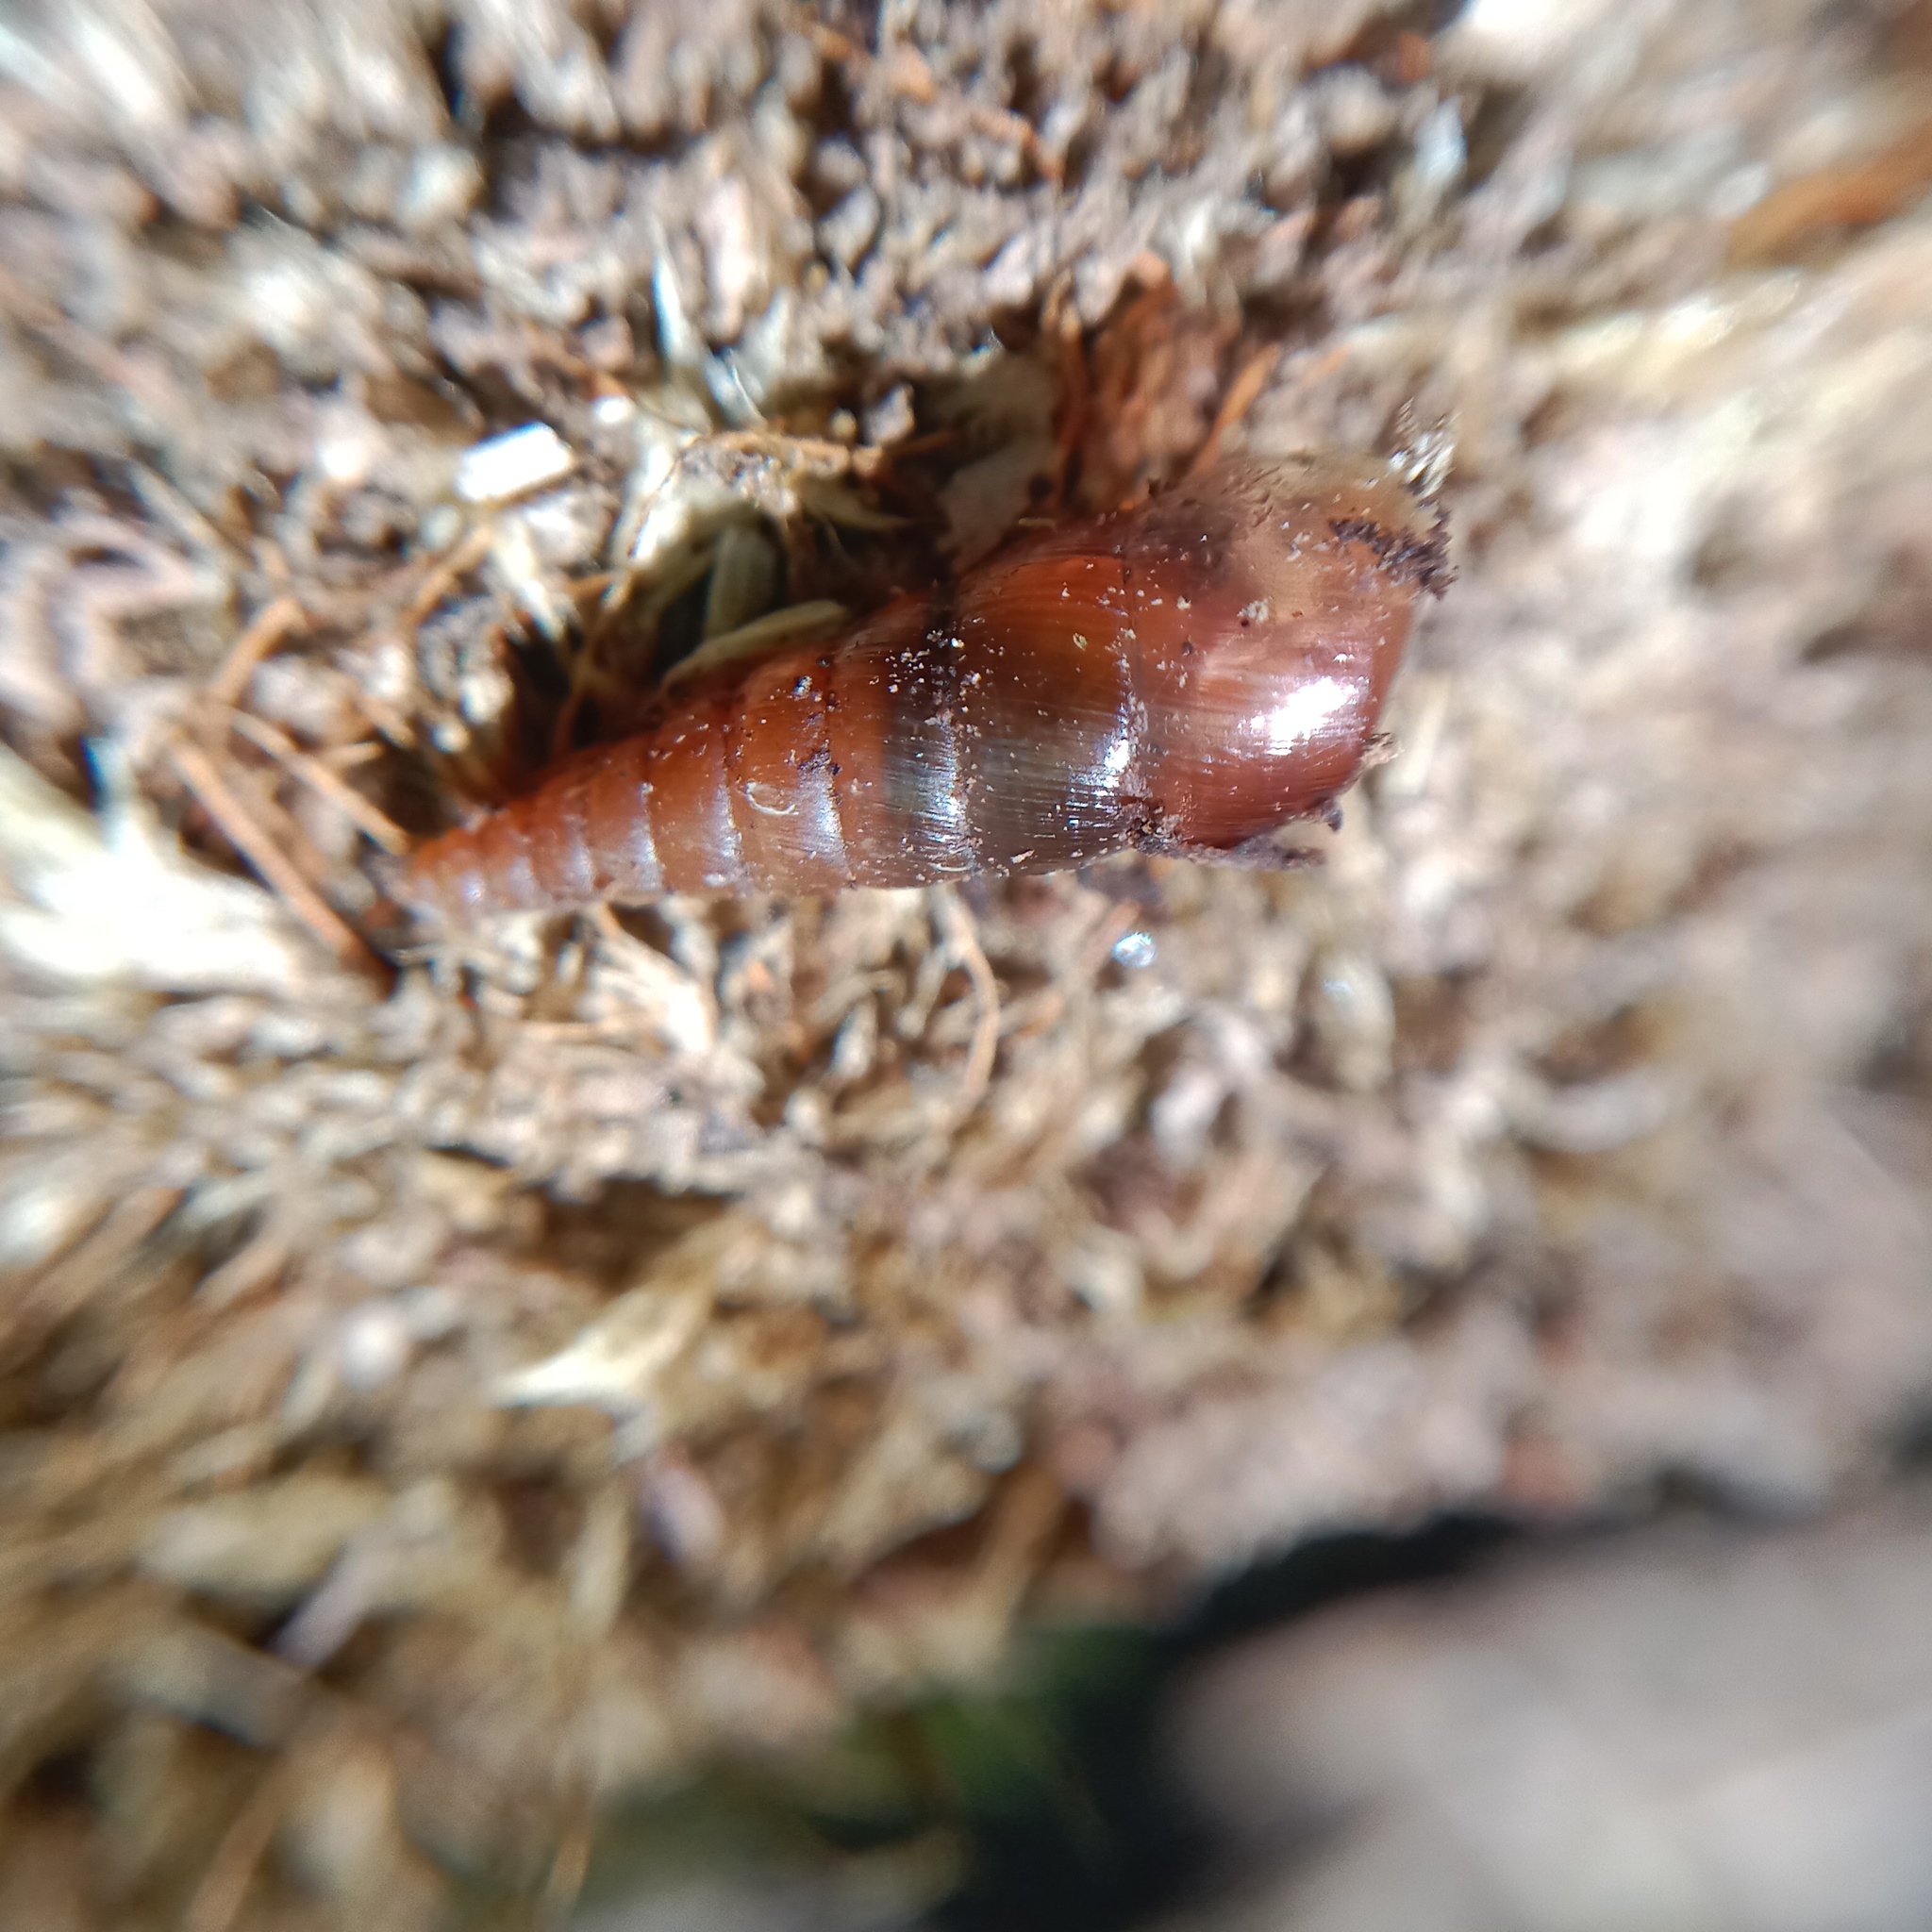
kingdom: Animalia
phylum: Mollusca
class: Gastropoda
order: Stylommatophora
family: Clausiliidae
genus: Cochlodina
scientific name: Cochlodina laminata
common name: Plaited door snail
